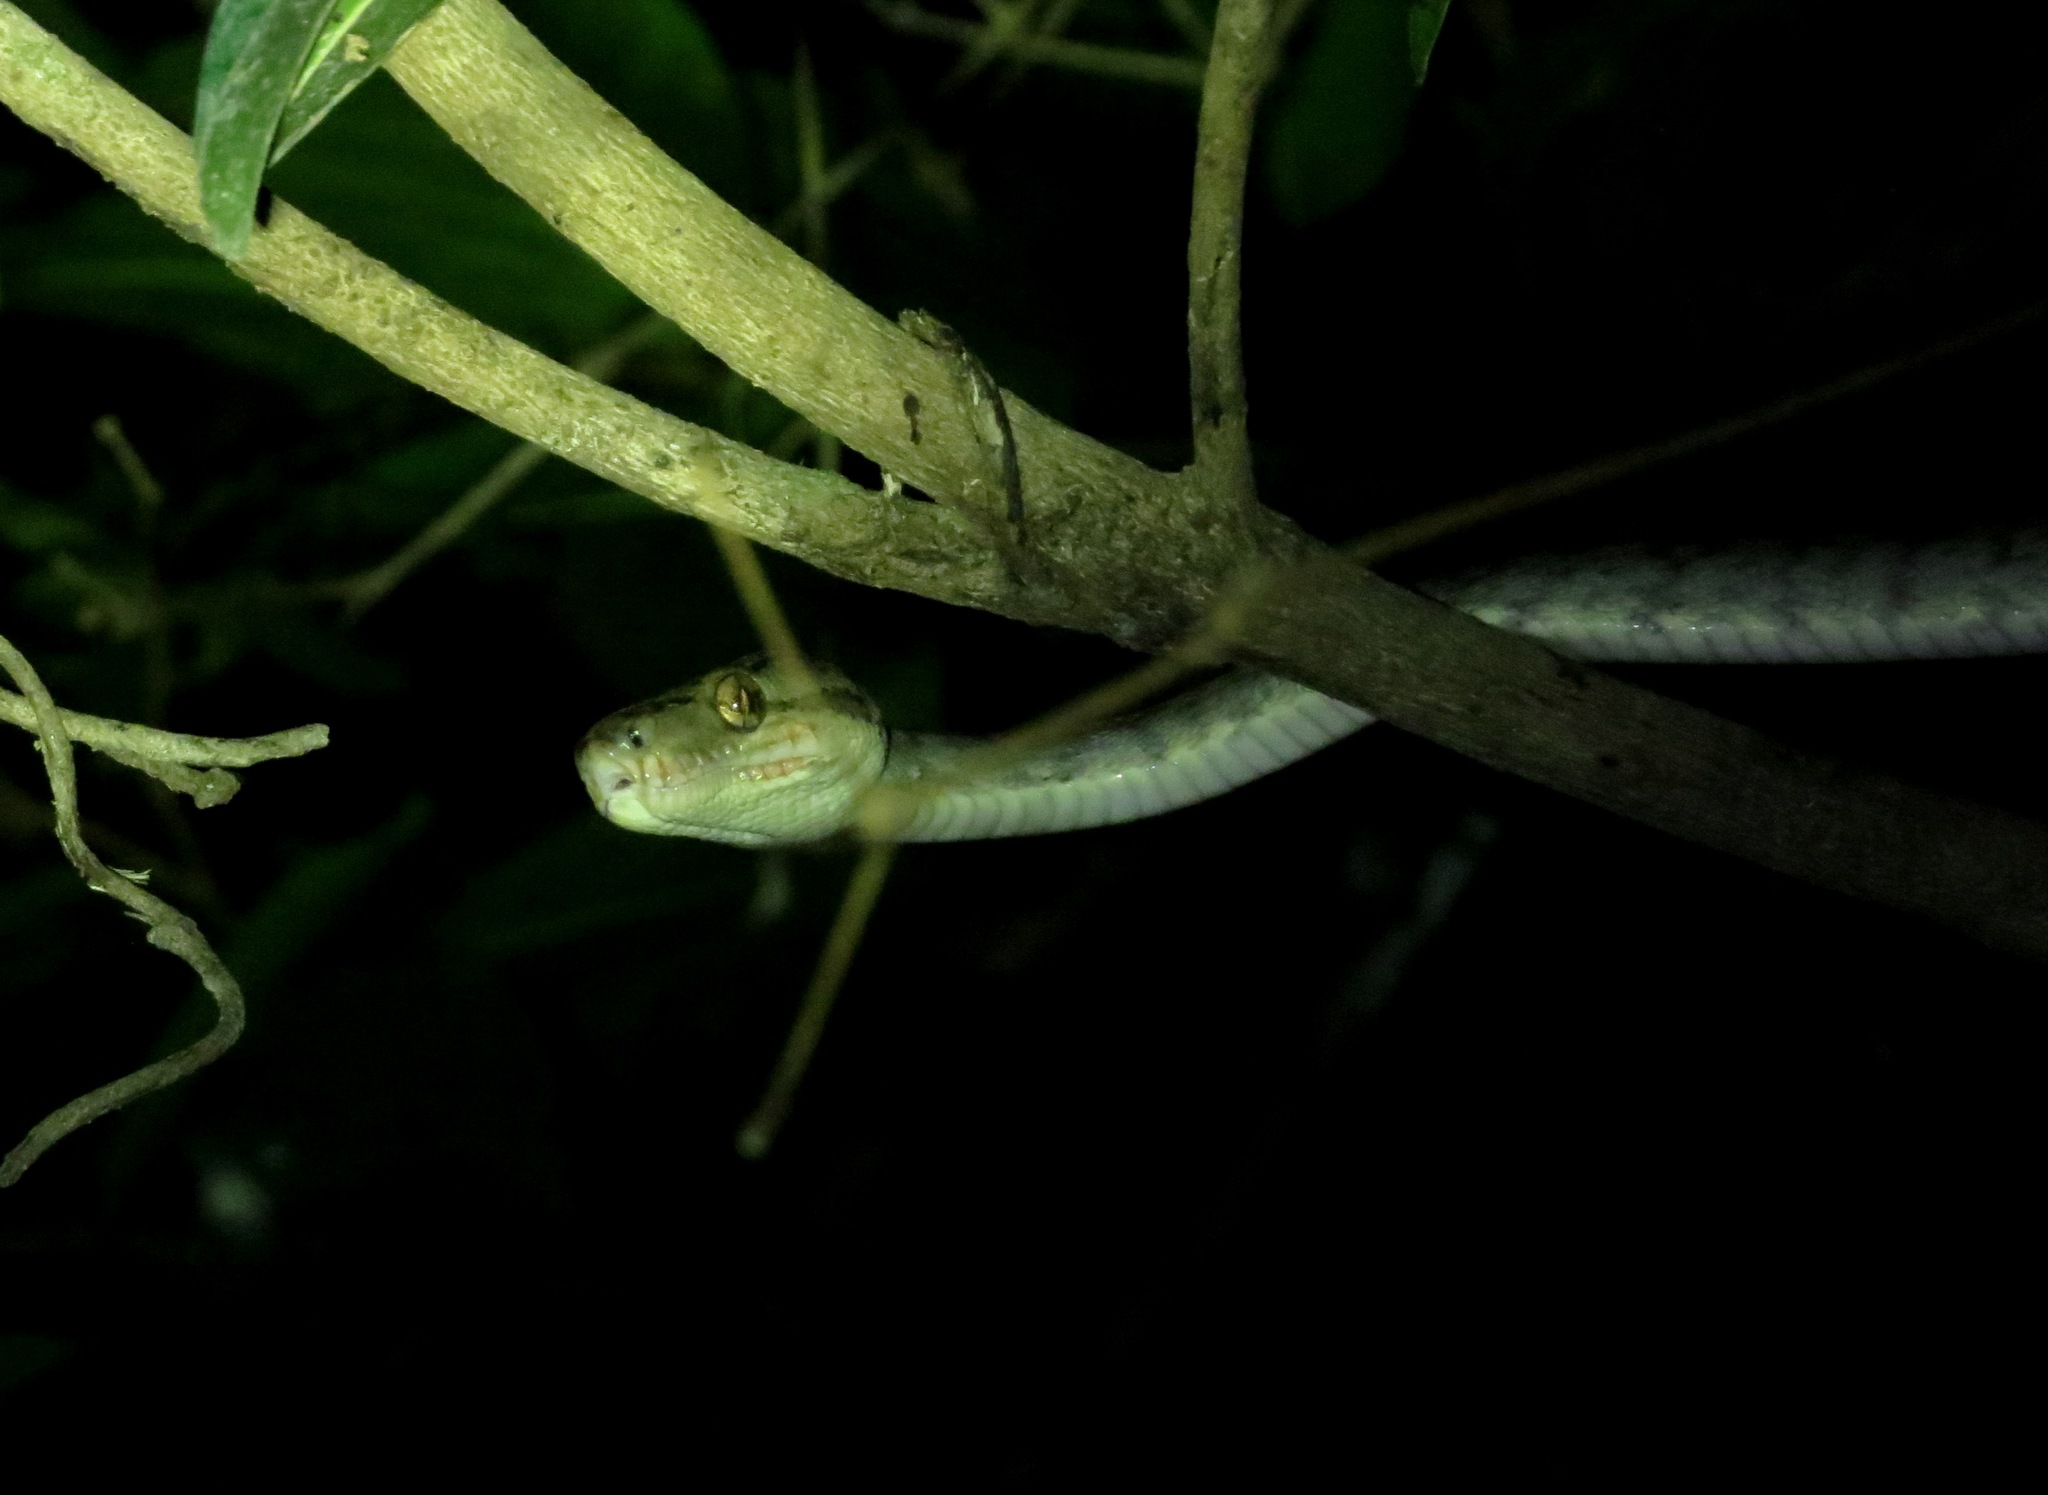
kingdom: Animalia
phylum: Chordata
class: Squamata
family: Boidae
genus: Corallus
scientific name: Corallus hortulana
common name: Garden tree boa
